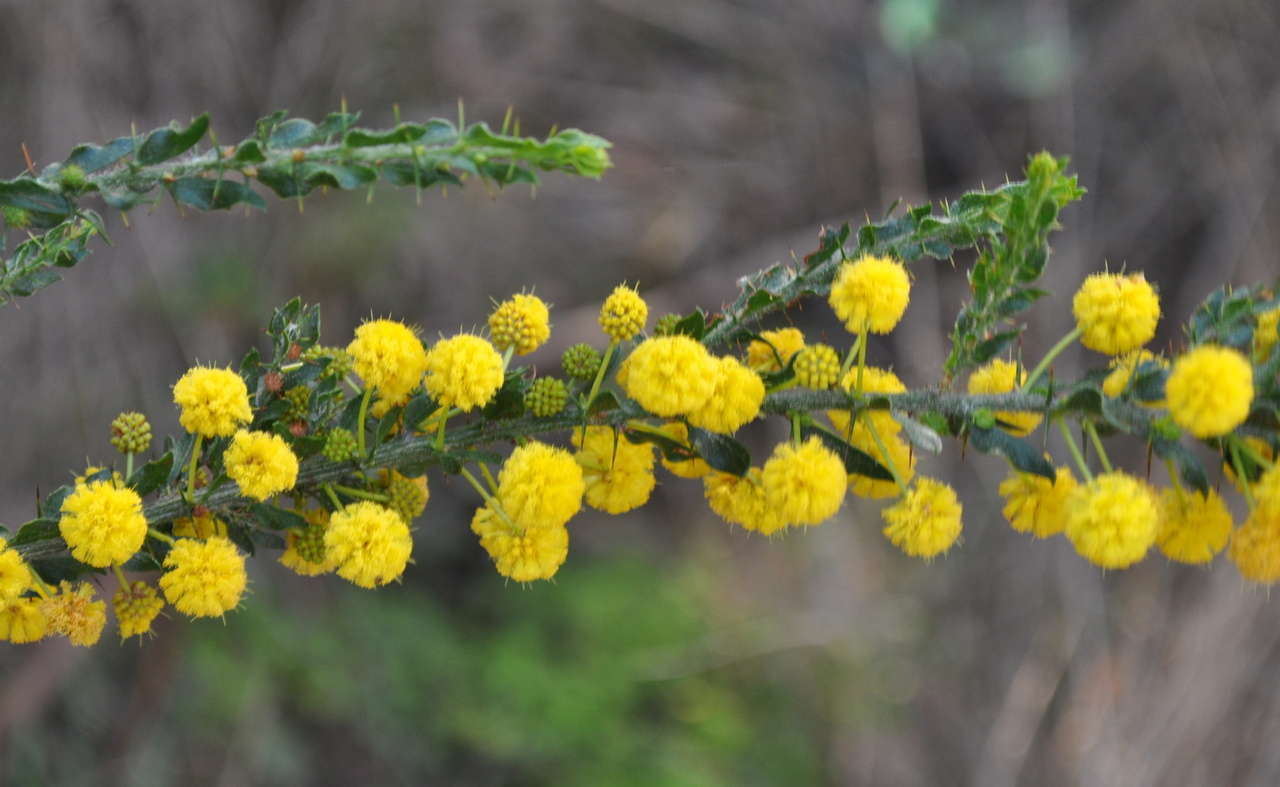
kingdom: Plantae
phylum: Tracheophyta
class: Magnoliopsida
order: Fabales
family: Fabaceae
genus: Acacia
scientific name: Acacia paradoxa
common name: Paradox acacia
